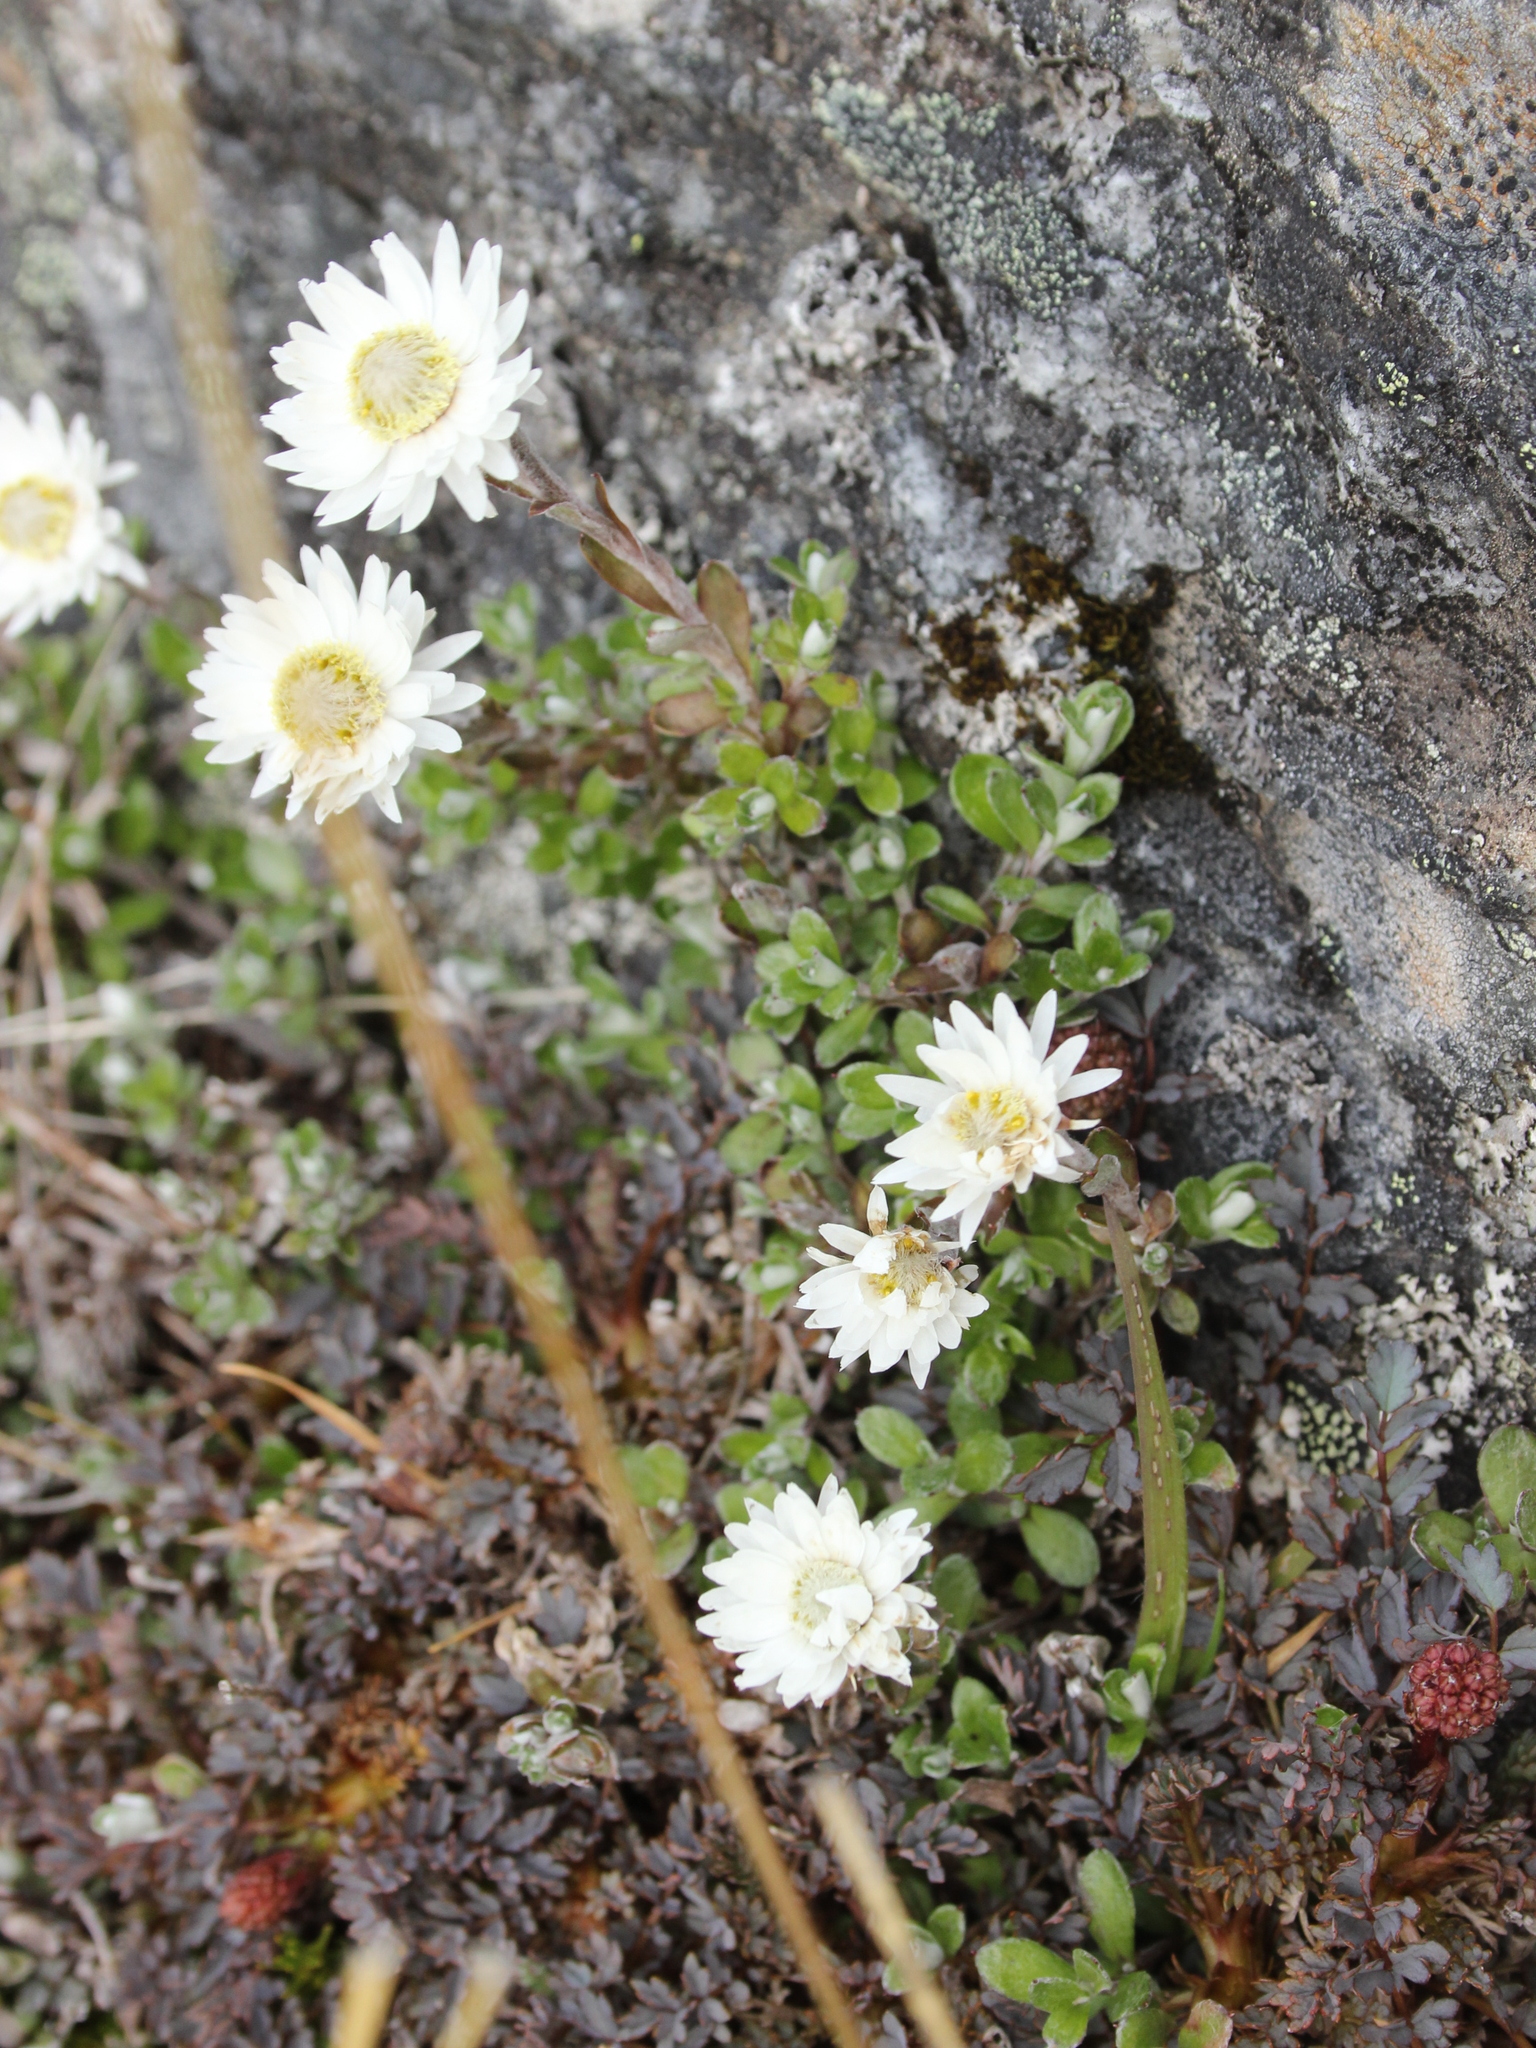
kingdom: Plantae
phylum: Tracheophyta
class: Magnoliopsida
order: Asterales
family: Asteraceae
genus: Anaphalioides
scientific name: Anaphalioides bellidioides
